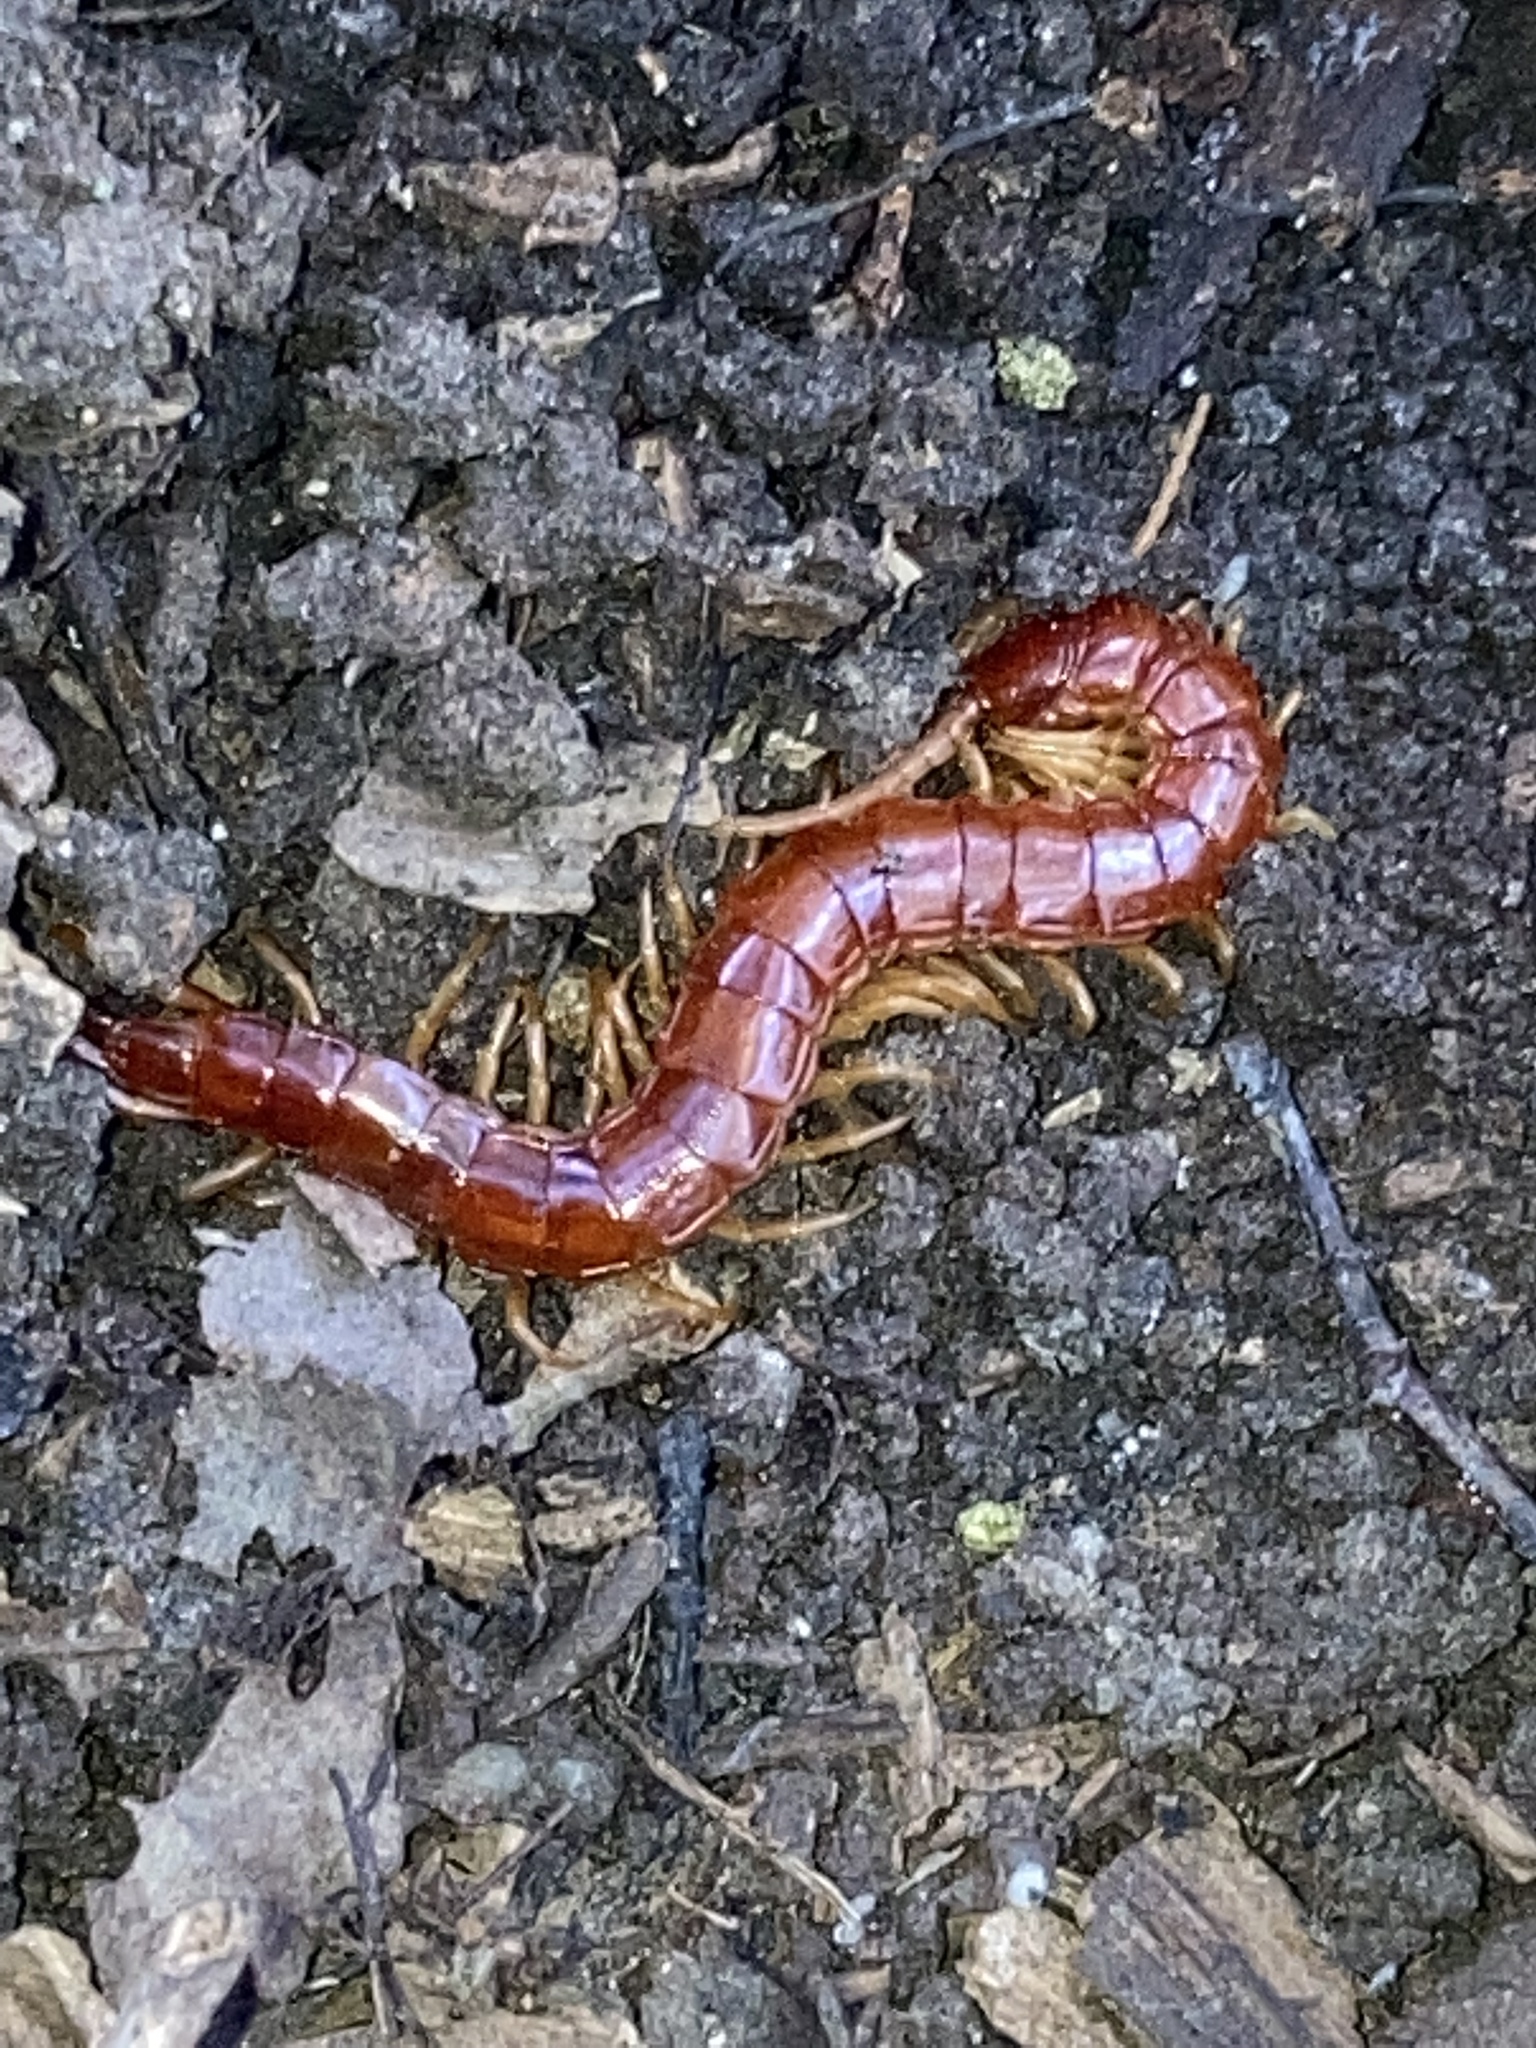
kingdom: Animalia
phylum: Arthropoda
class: Chilopoda
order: Scolopendromorpha
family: Scolopocryptopidae
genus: Scolopocryptops
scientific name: Scolopocryptops sexspinosus
